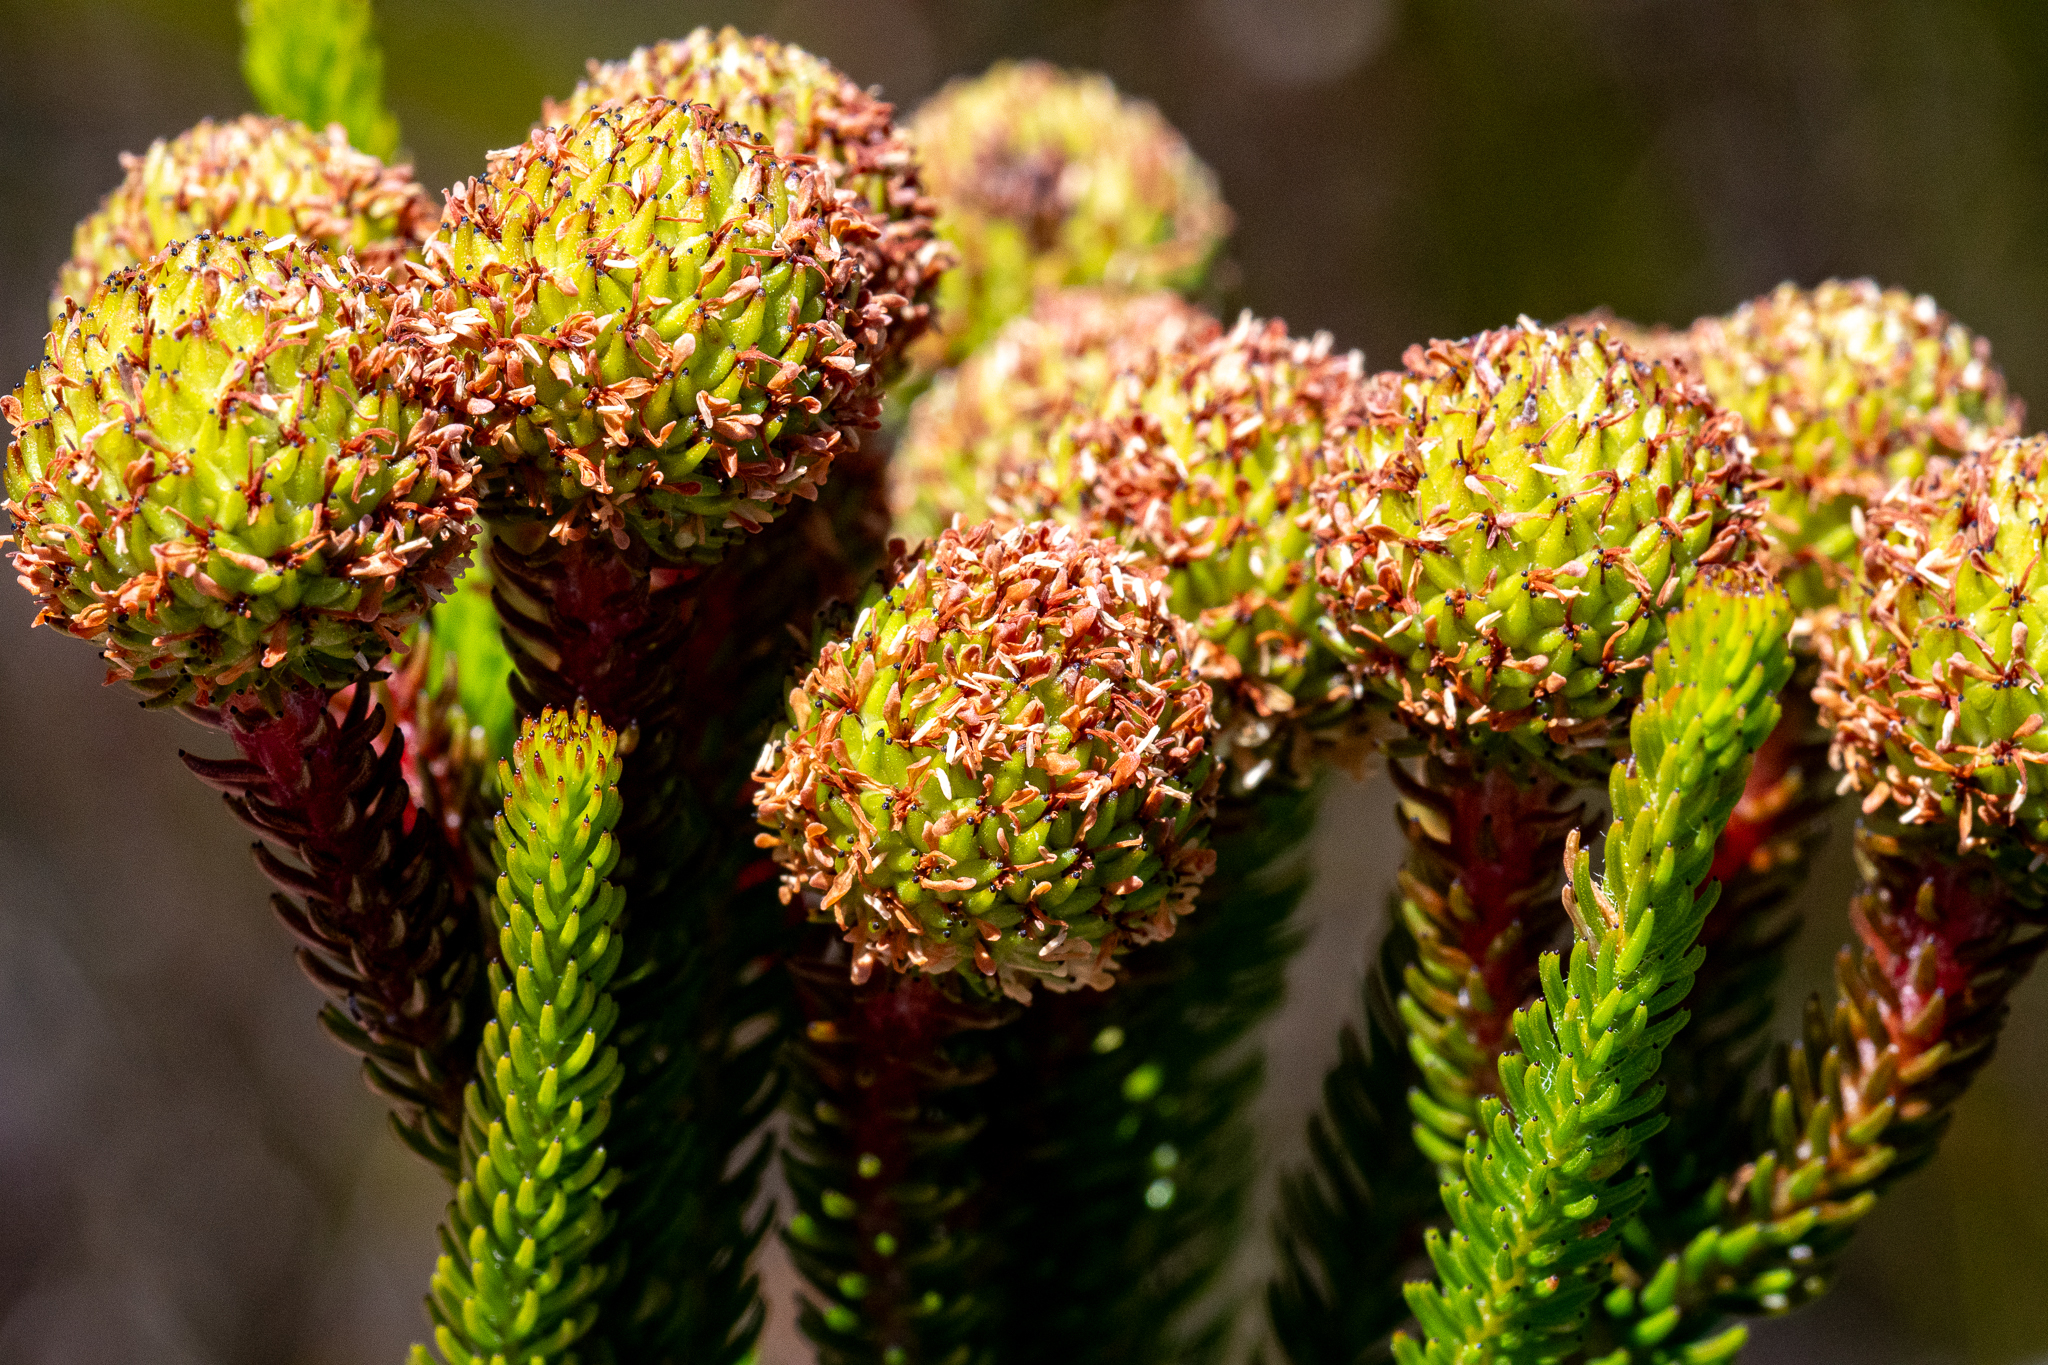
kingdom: Plantae
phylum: Tracheophyta
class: Magnoliopsida
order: Bruniales
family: Bruniaceae
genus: Berzelia
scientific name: Berzelia albiflora
